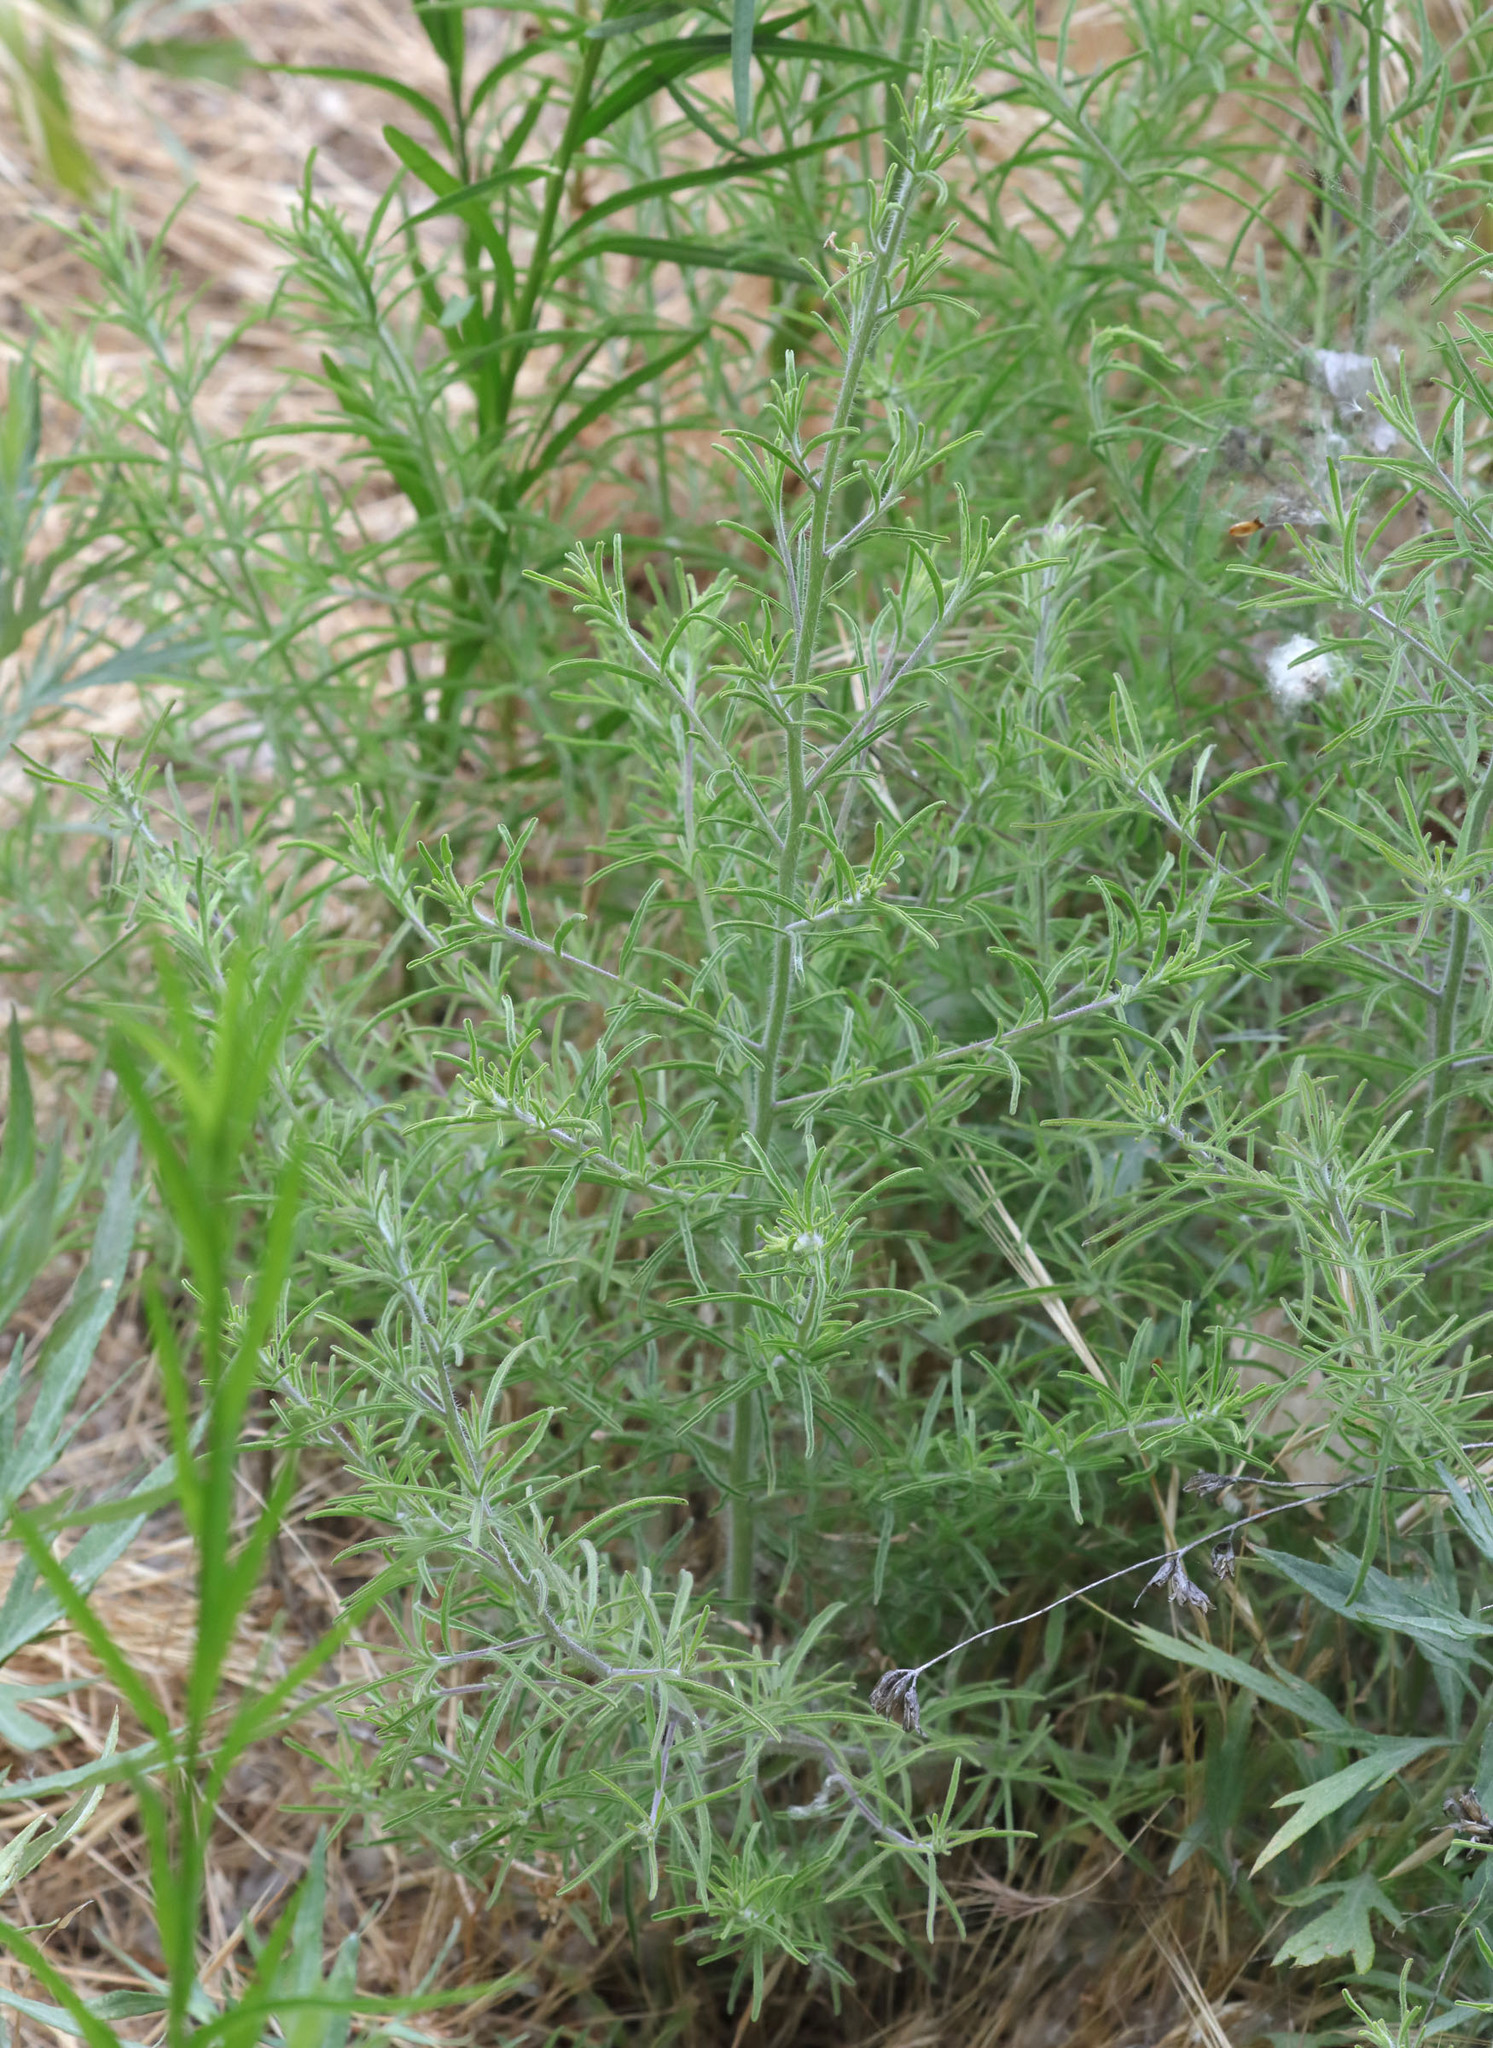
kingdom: Plantae
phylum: Tracheophyta
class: Magnoliopsida
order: Lamiales
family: Orobanchaceae
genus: Cordylanthus
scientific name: Cordylanthus rigidus
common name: Stiff-branch bird's-beak
